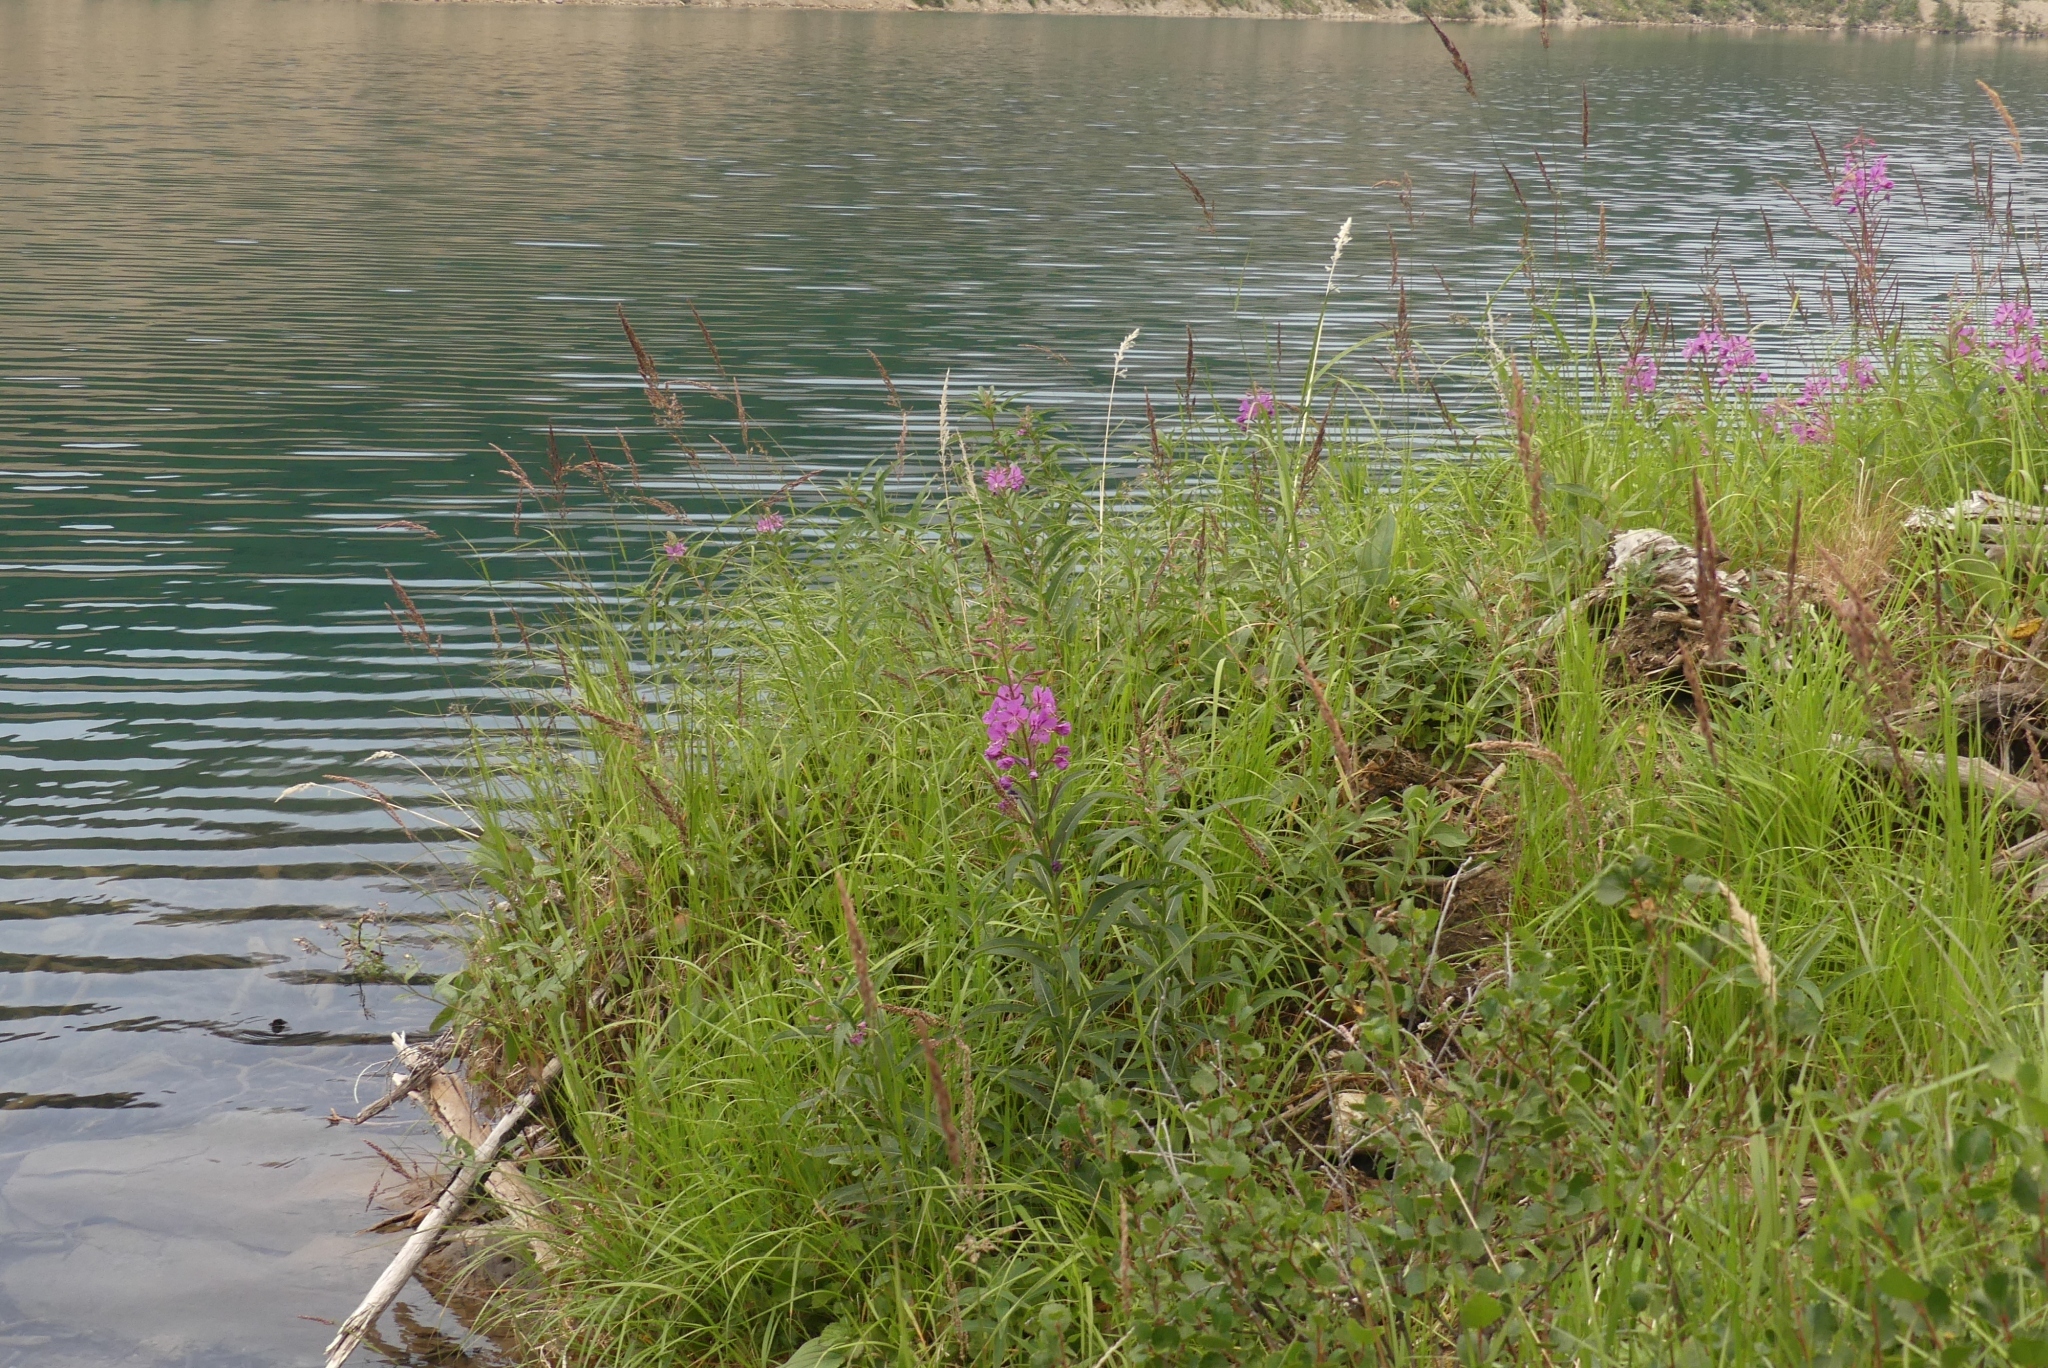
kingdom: Plantae
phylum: Tracheophyta
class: Magnoliopsida
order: Myrtales
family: Onagraceae
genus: Chamaenerion
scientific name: Chamaenerion angustifolium
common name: Fireweed
